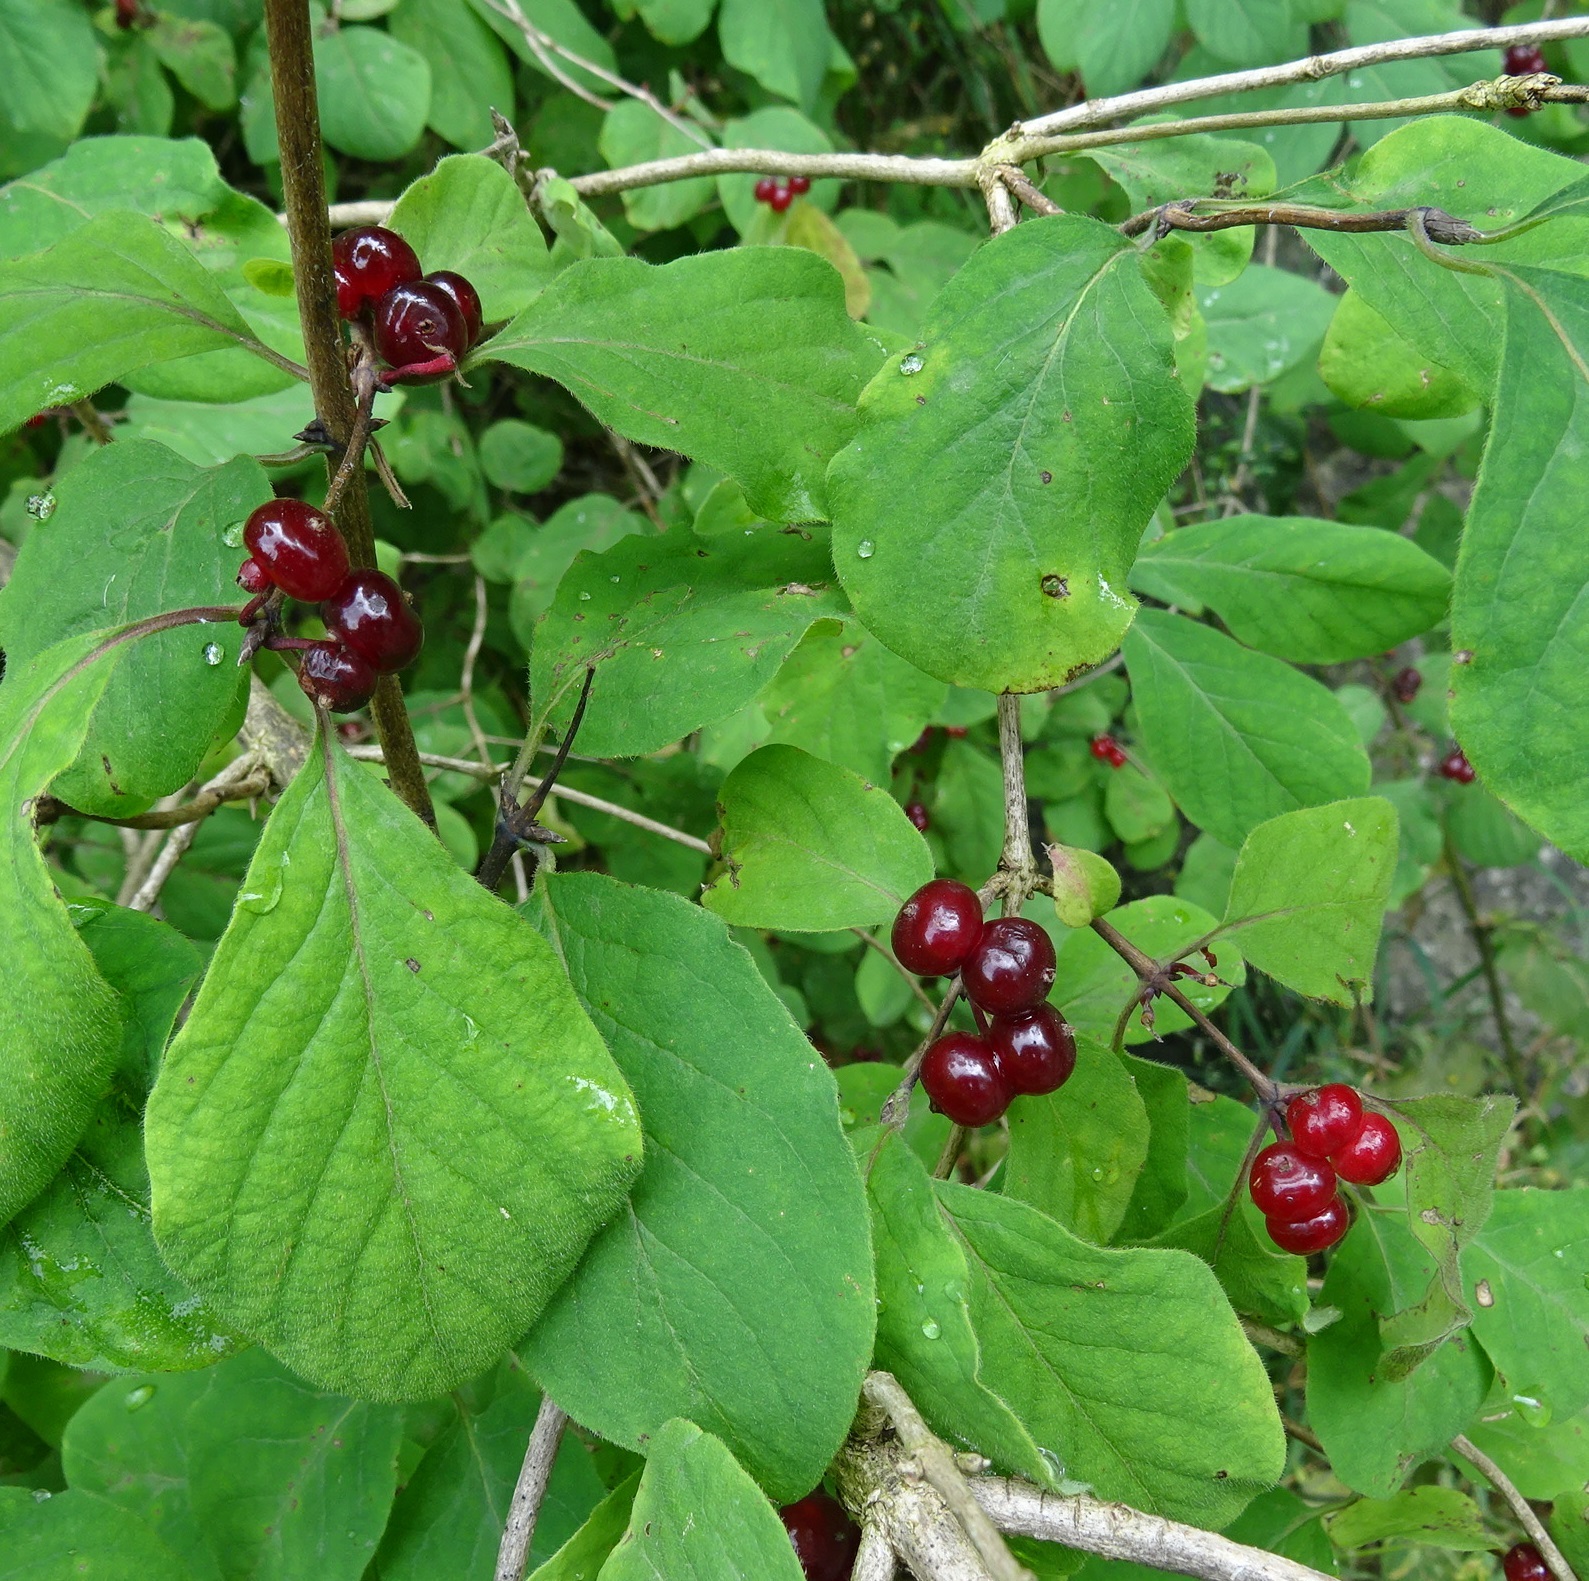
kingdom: Plantae
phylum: Tracheophyta
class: Magnoliopsida
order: Dipsacales
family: Caprifoliaceae
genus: Lonicera
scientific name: Lonicera xylosteum
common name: Fly honeysuckle
